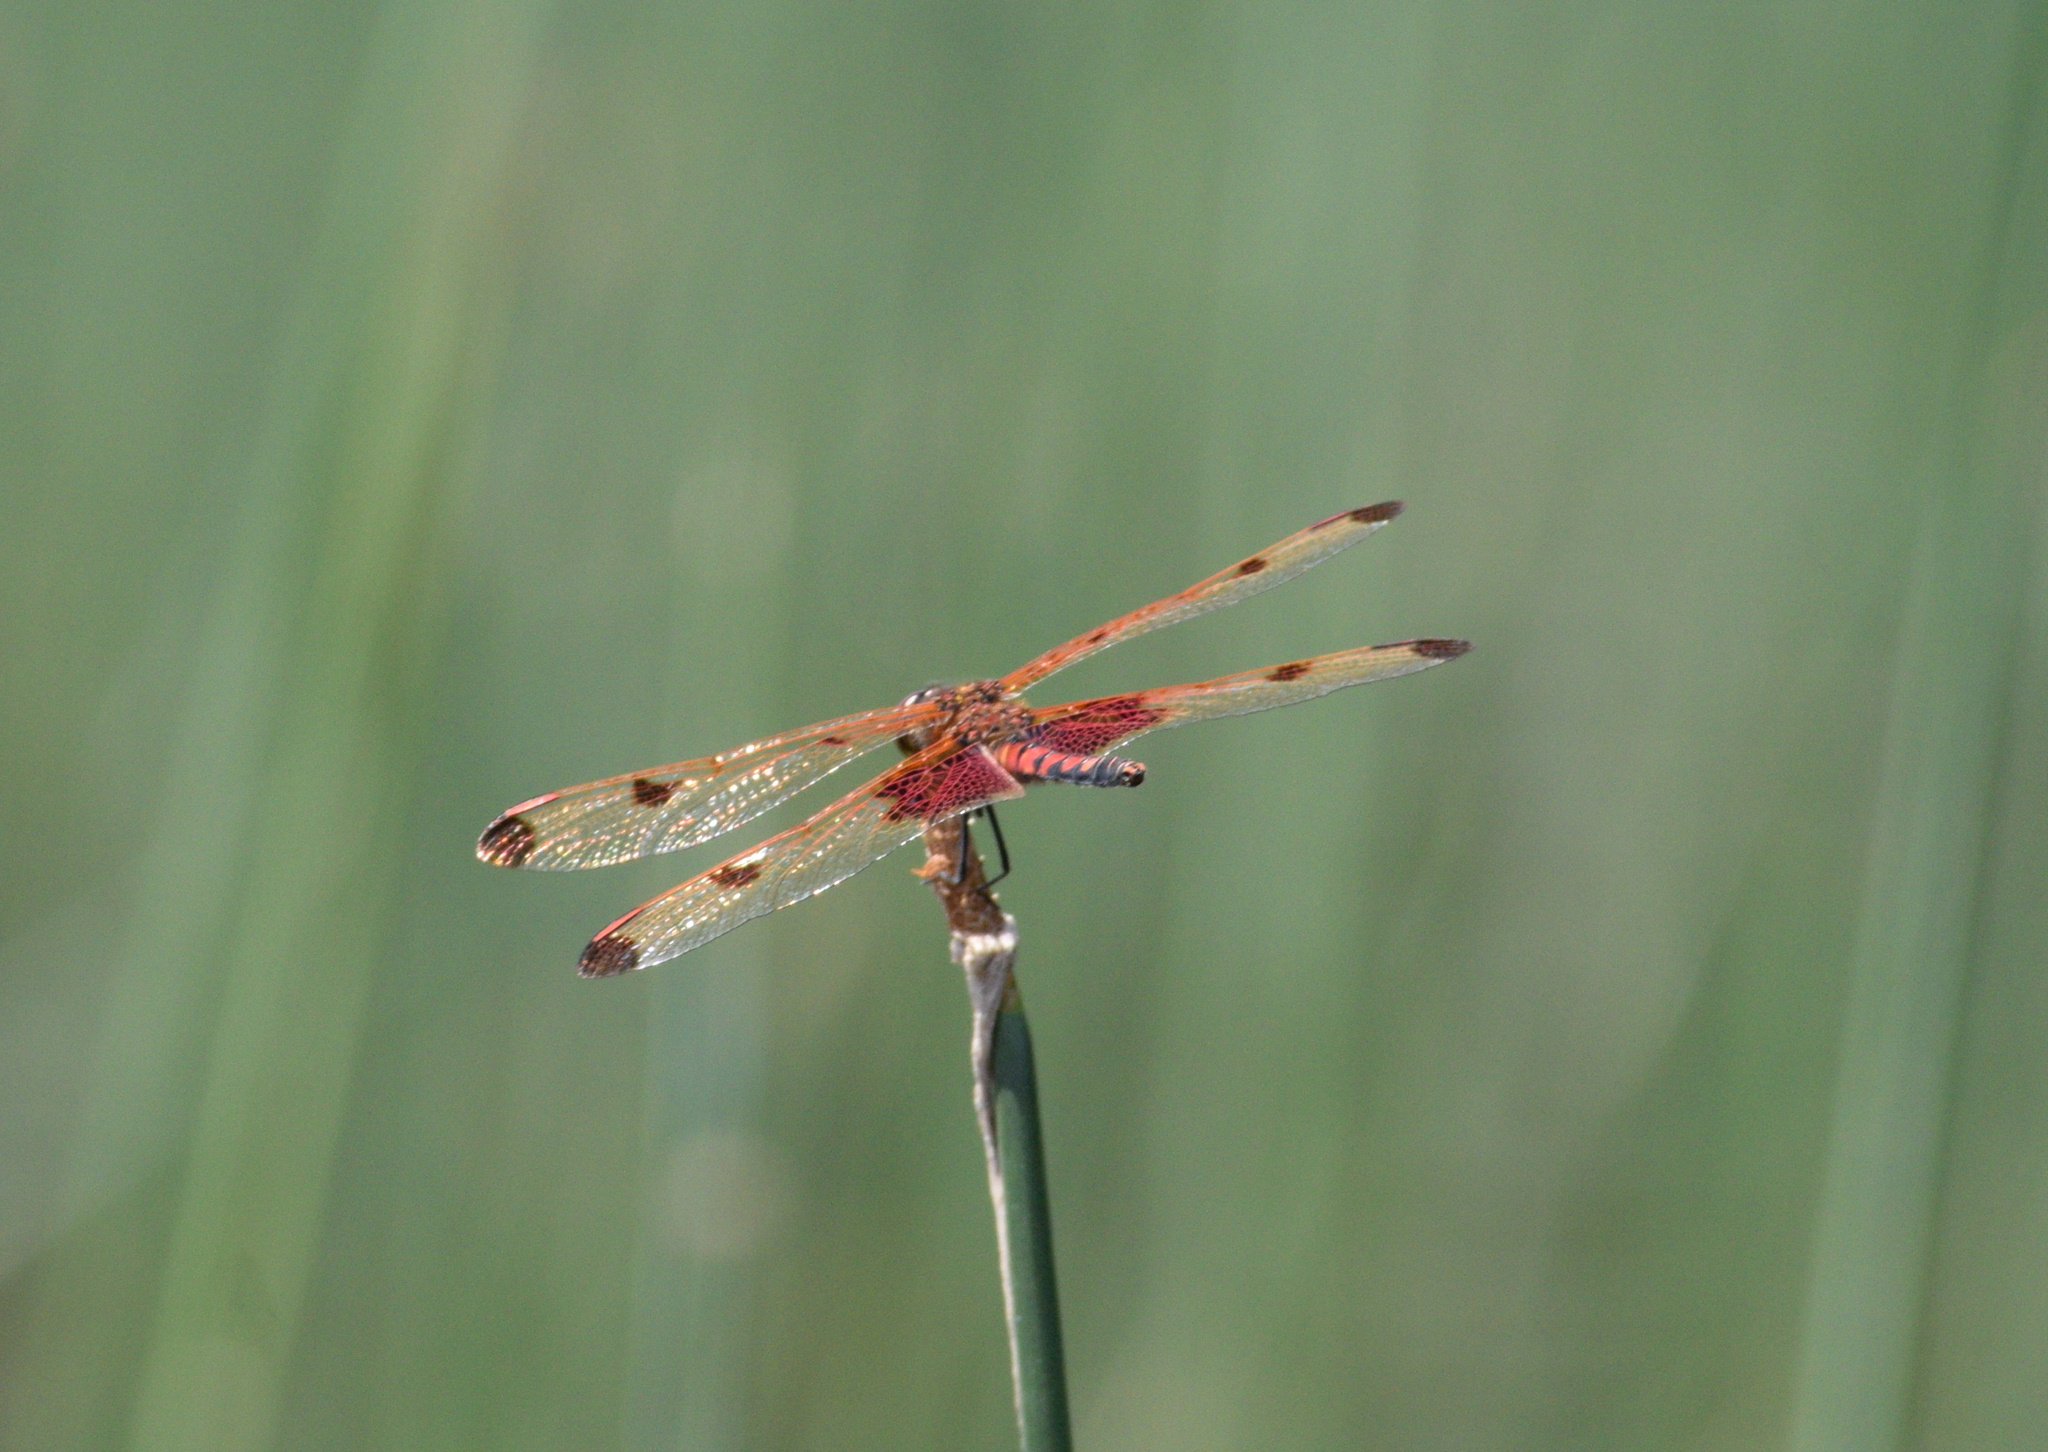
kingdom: Animalia
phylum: Arthropoda
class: Insecta
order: Odonata
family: Libellulidae
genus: Celithemis
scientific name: Celithemis elisa
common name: Calico pennant
